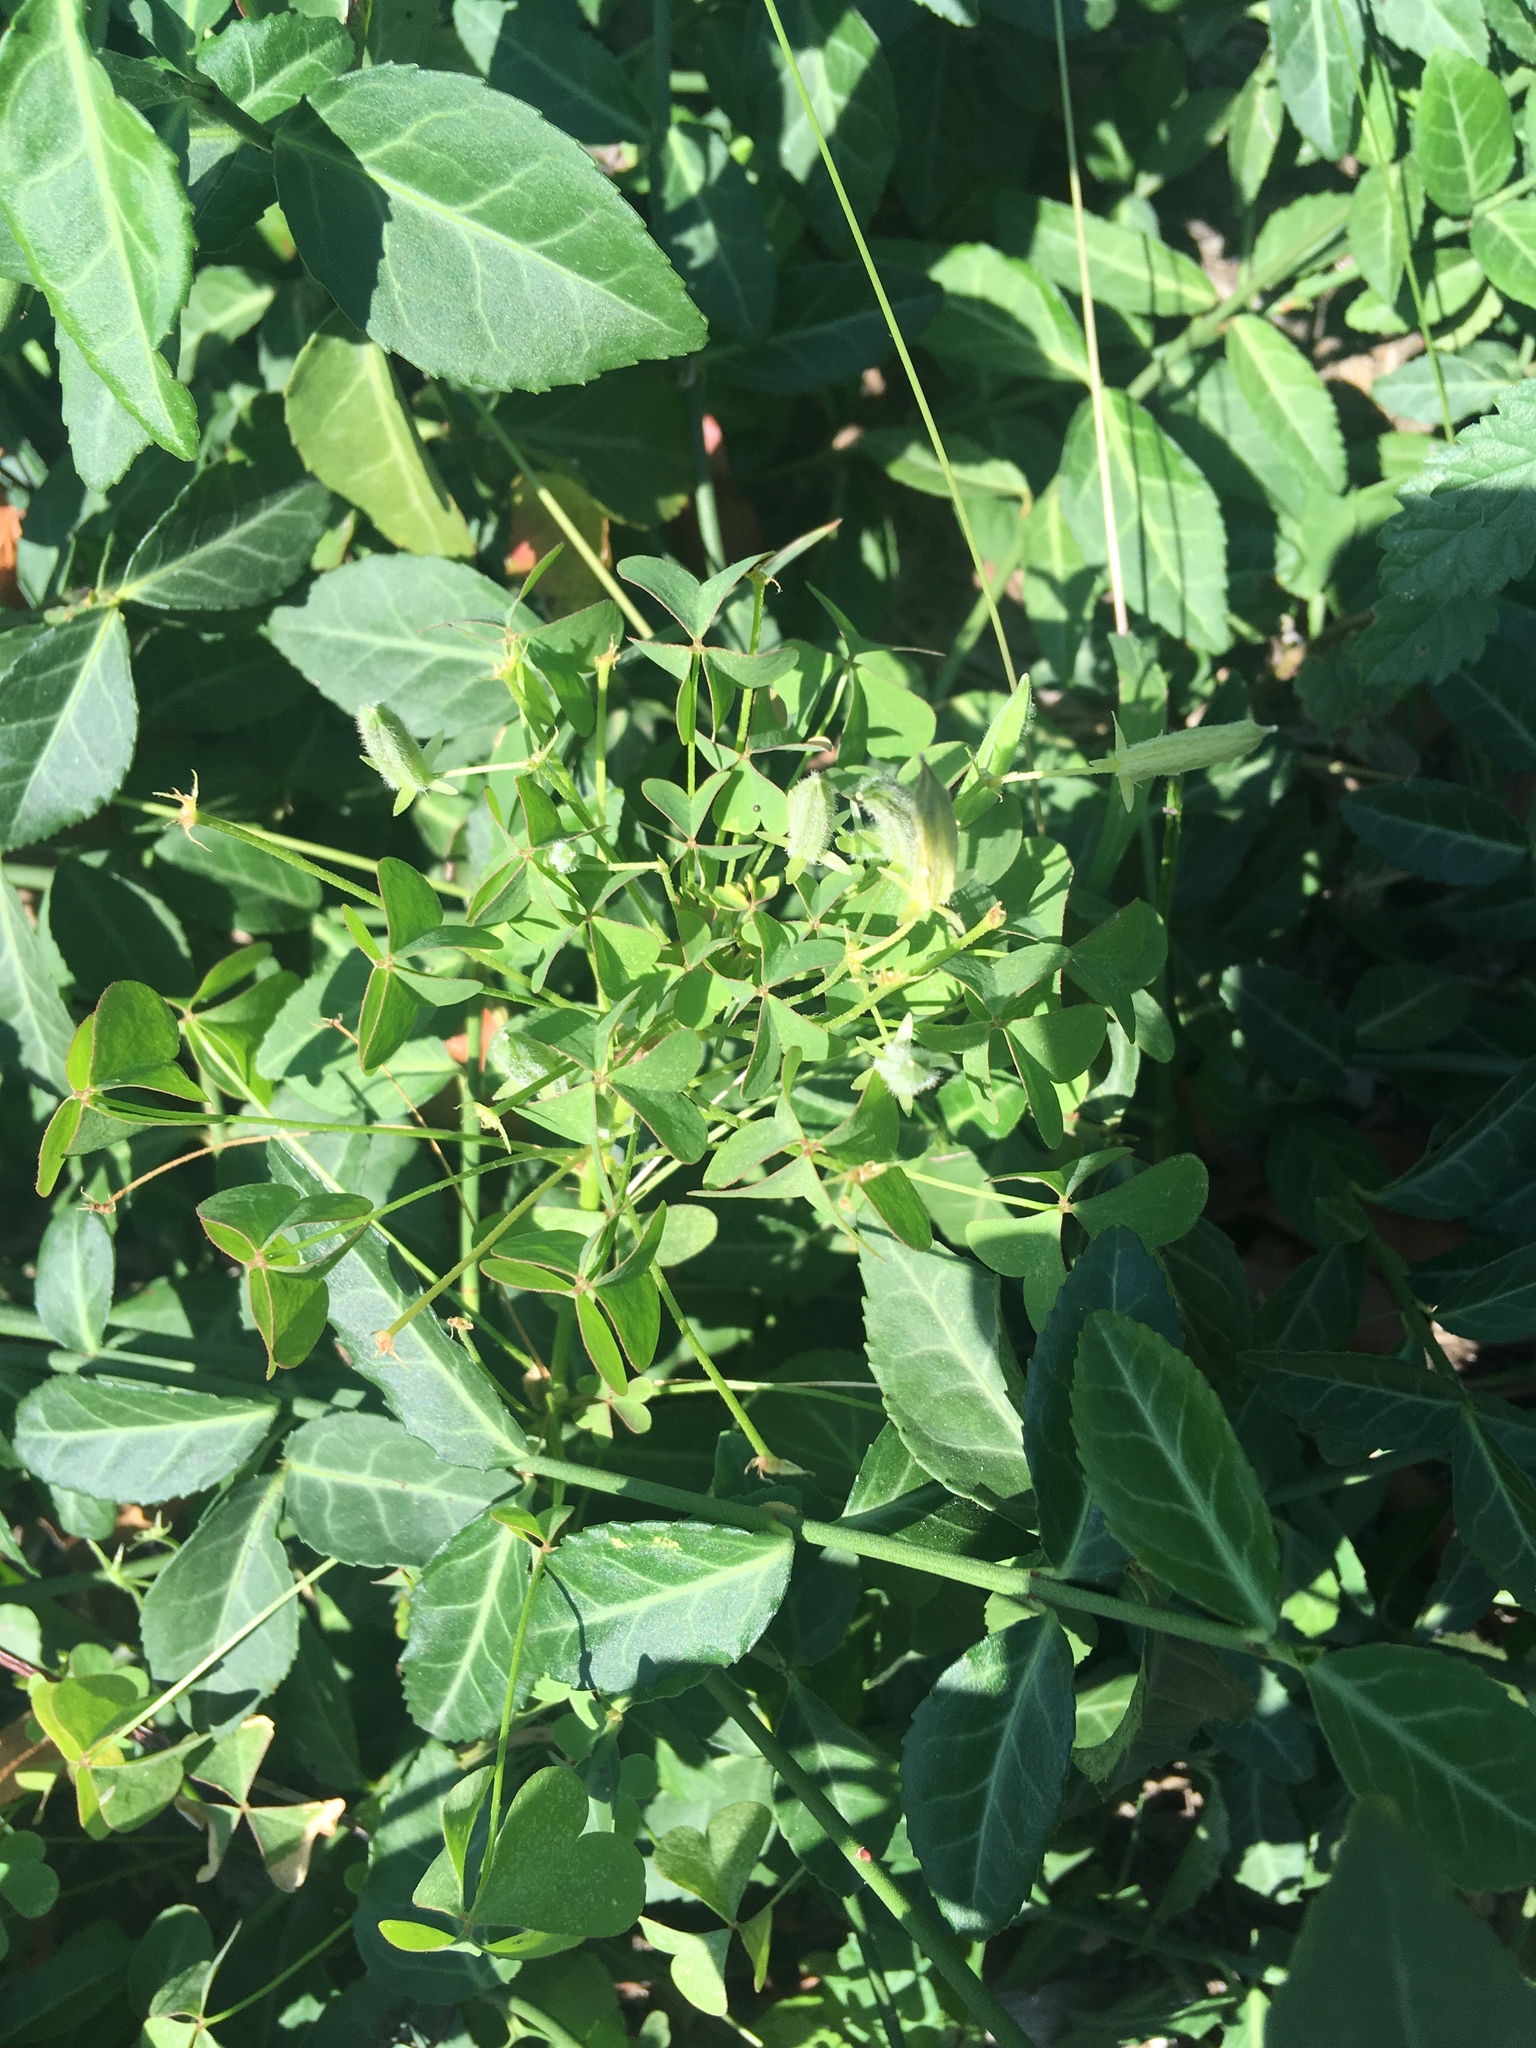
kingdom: Plantae
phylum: Tracheophyta
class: Magnoliopsida
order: Oxalidales
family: Oxalidaceae
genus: Oxalis
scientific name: Oxalis corniculata
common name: Procumbent yellow-sorrel
